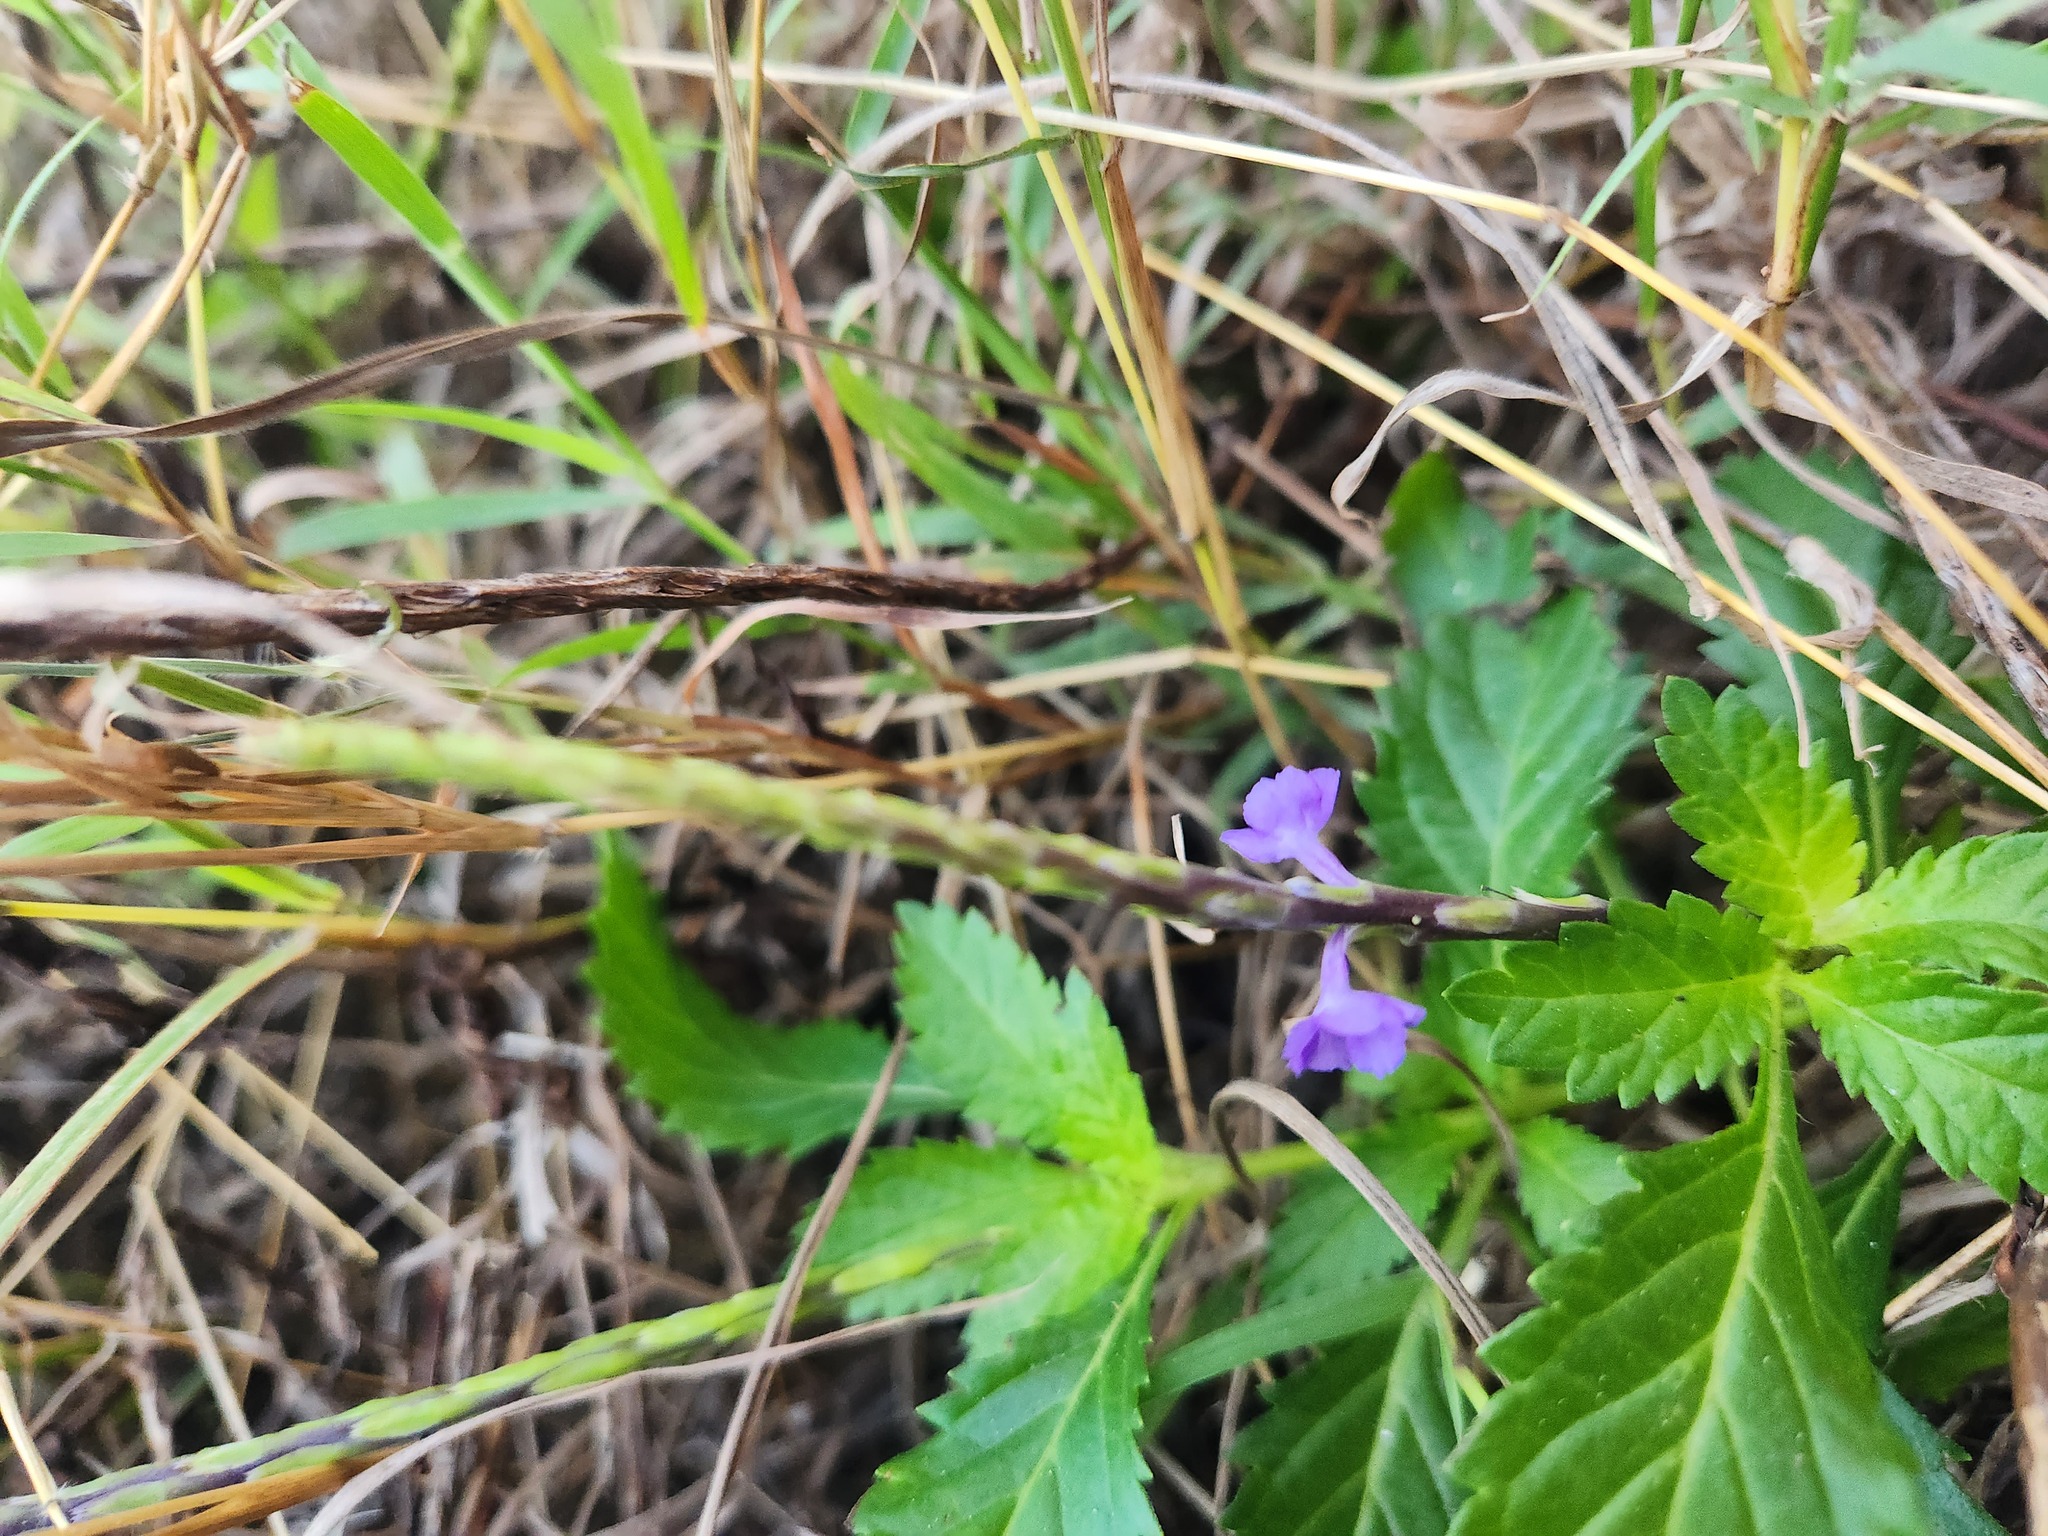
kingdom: Plantae
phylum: Tracheophyta
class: Magnoliopsida
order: Lamiales
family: Verbenaceae
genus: Stachytarpheta
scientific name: Stachytarpheta jamaicensis
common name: Light-blue snakeweed
